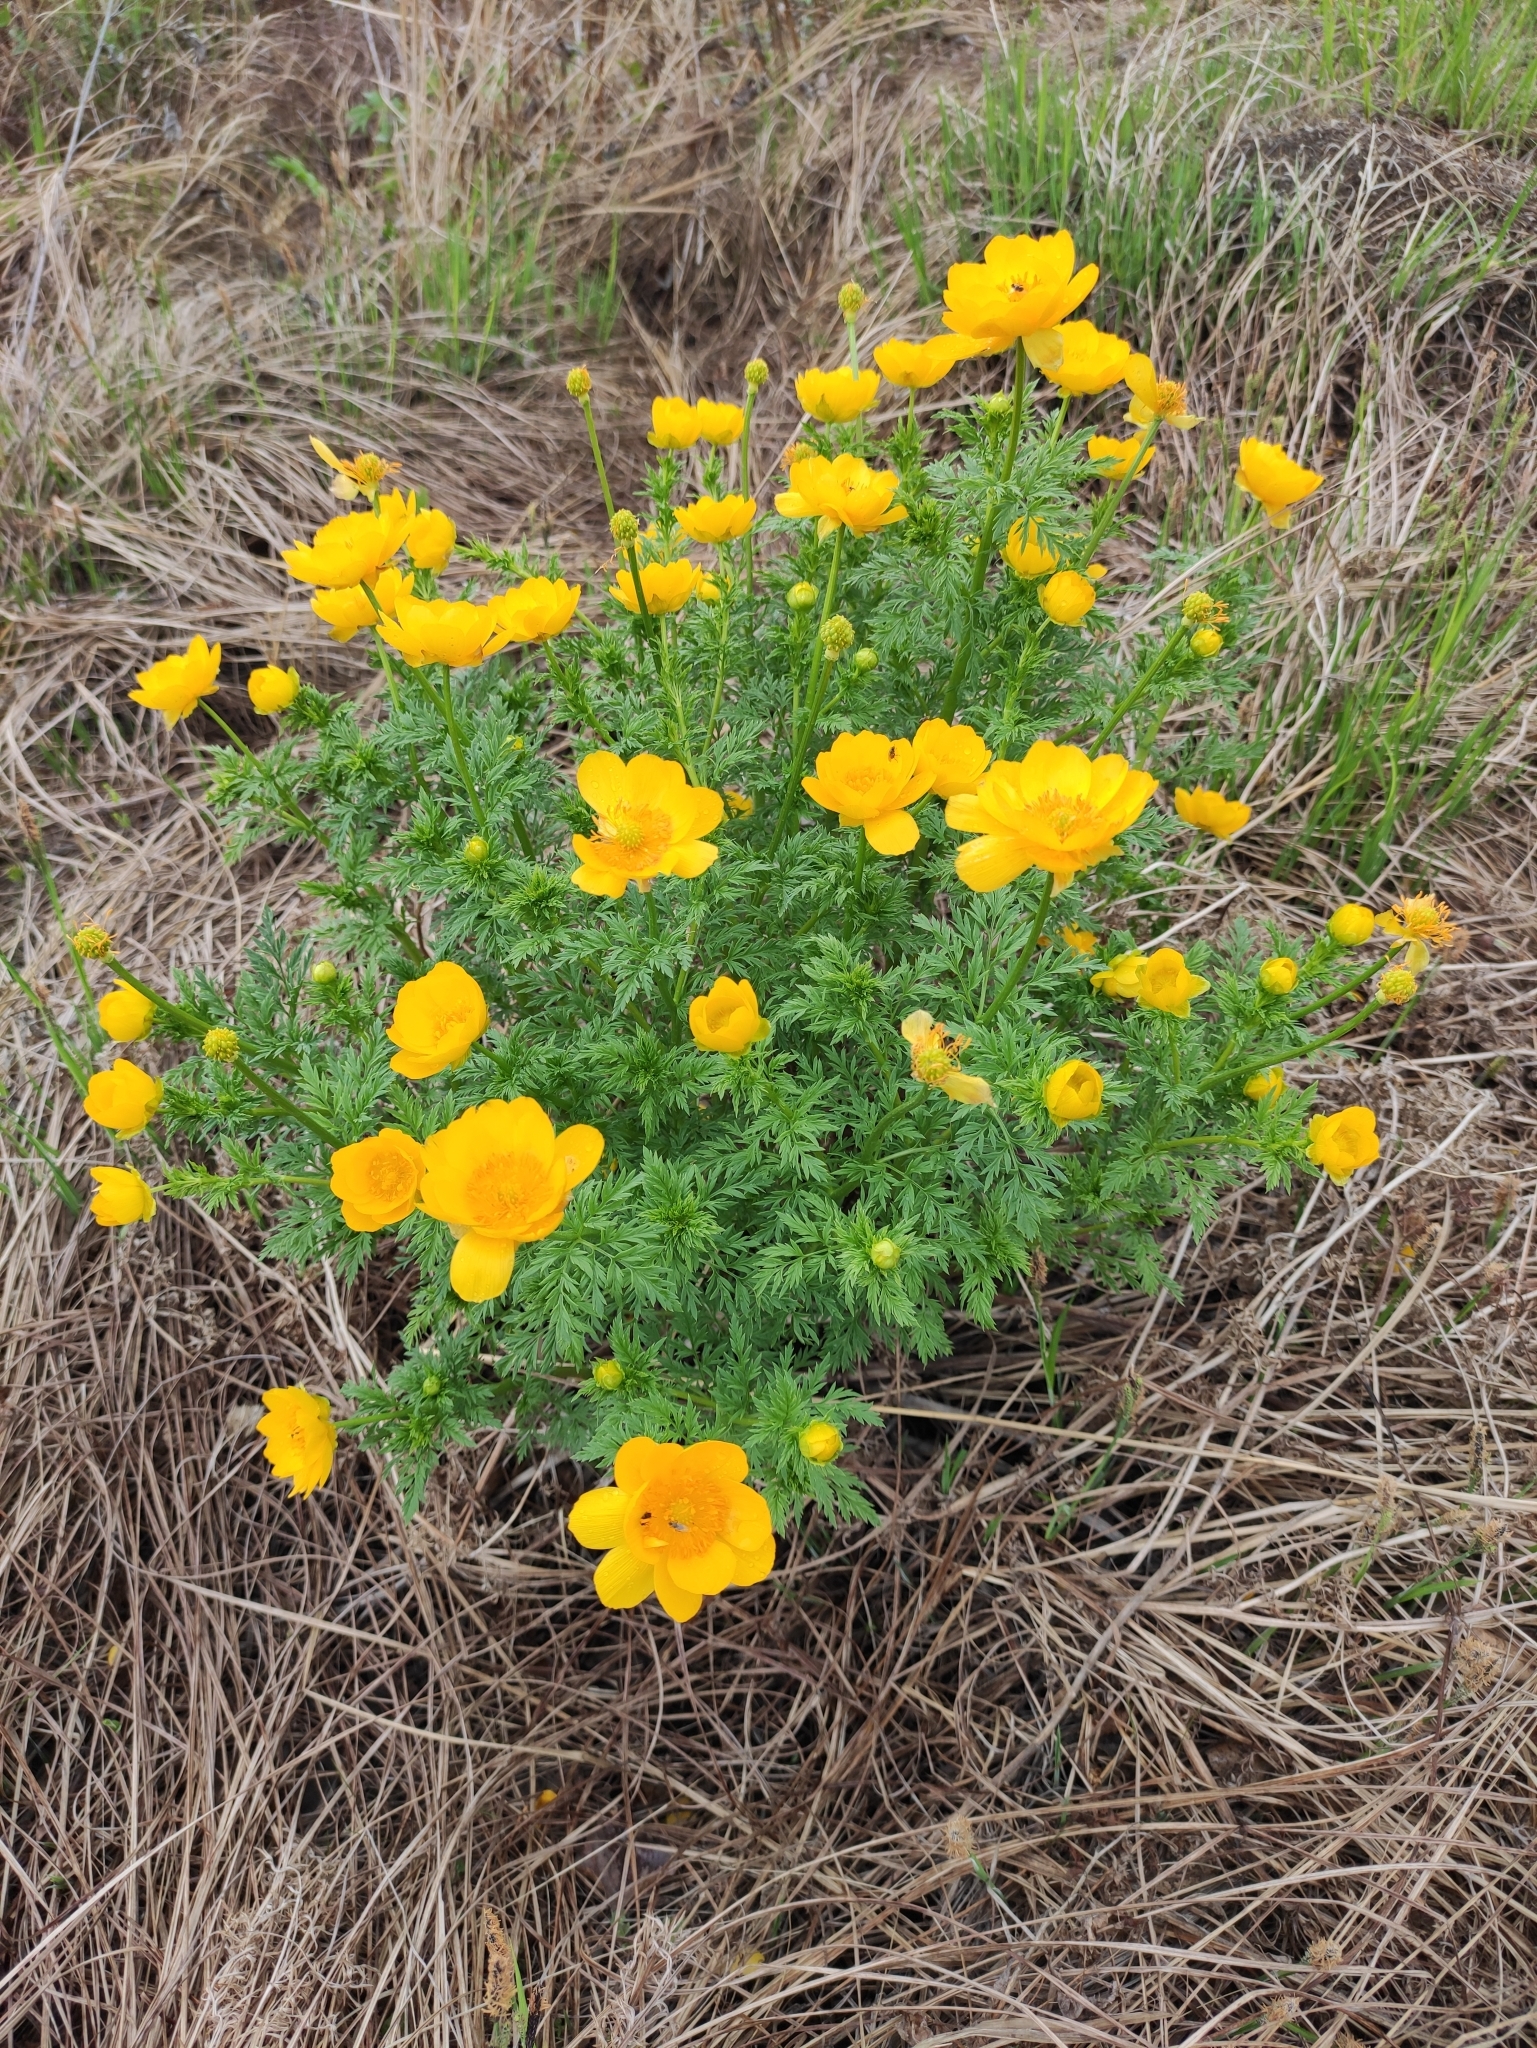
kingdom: Plantae
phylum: Tracheophyta
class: Magnoliopsida
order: Ranunculales
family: Ranunculaceae
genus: Adonis
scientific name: Adonis
